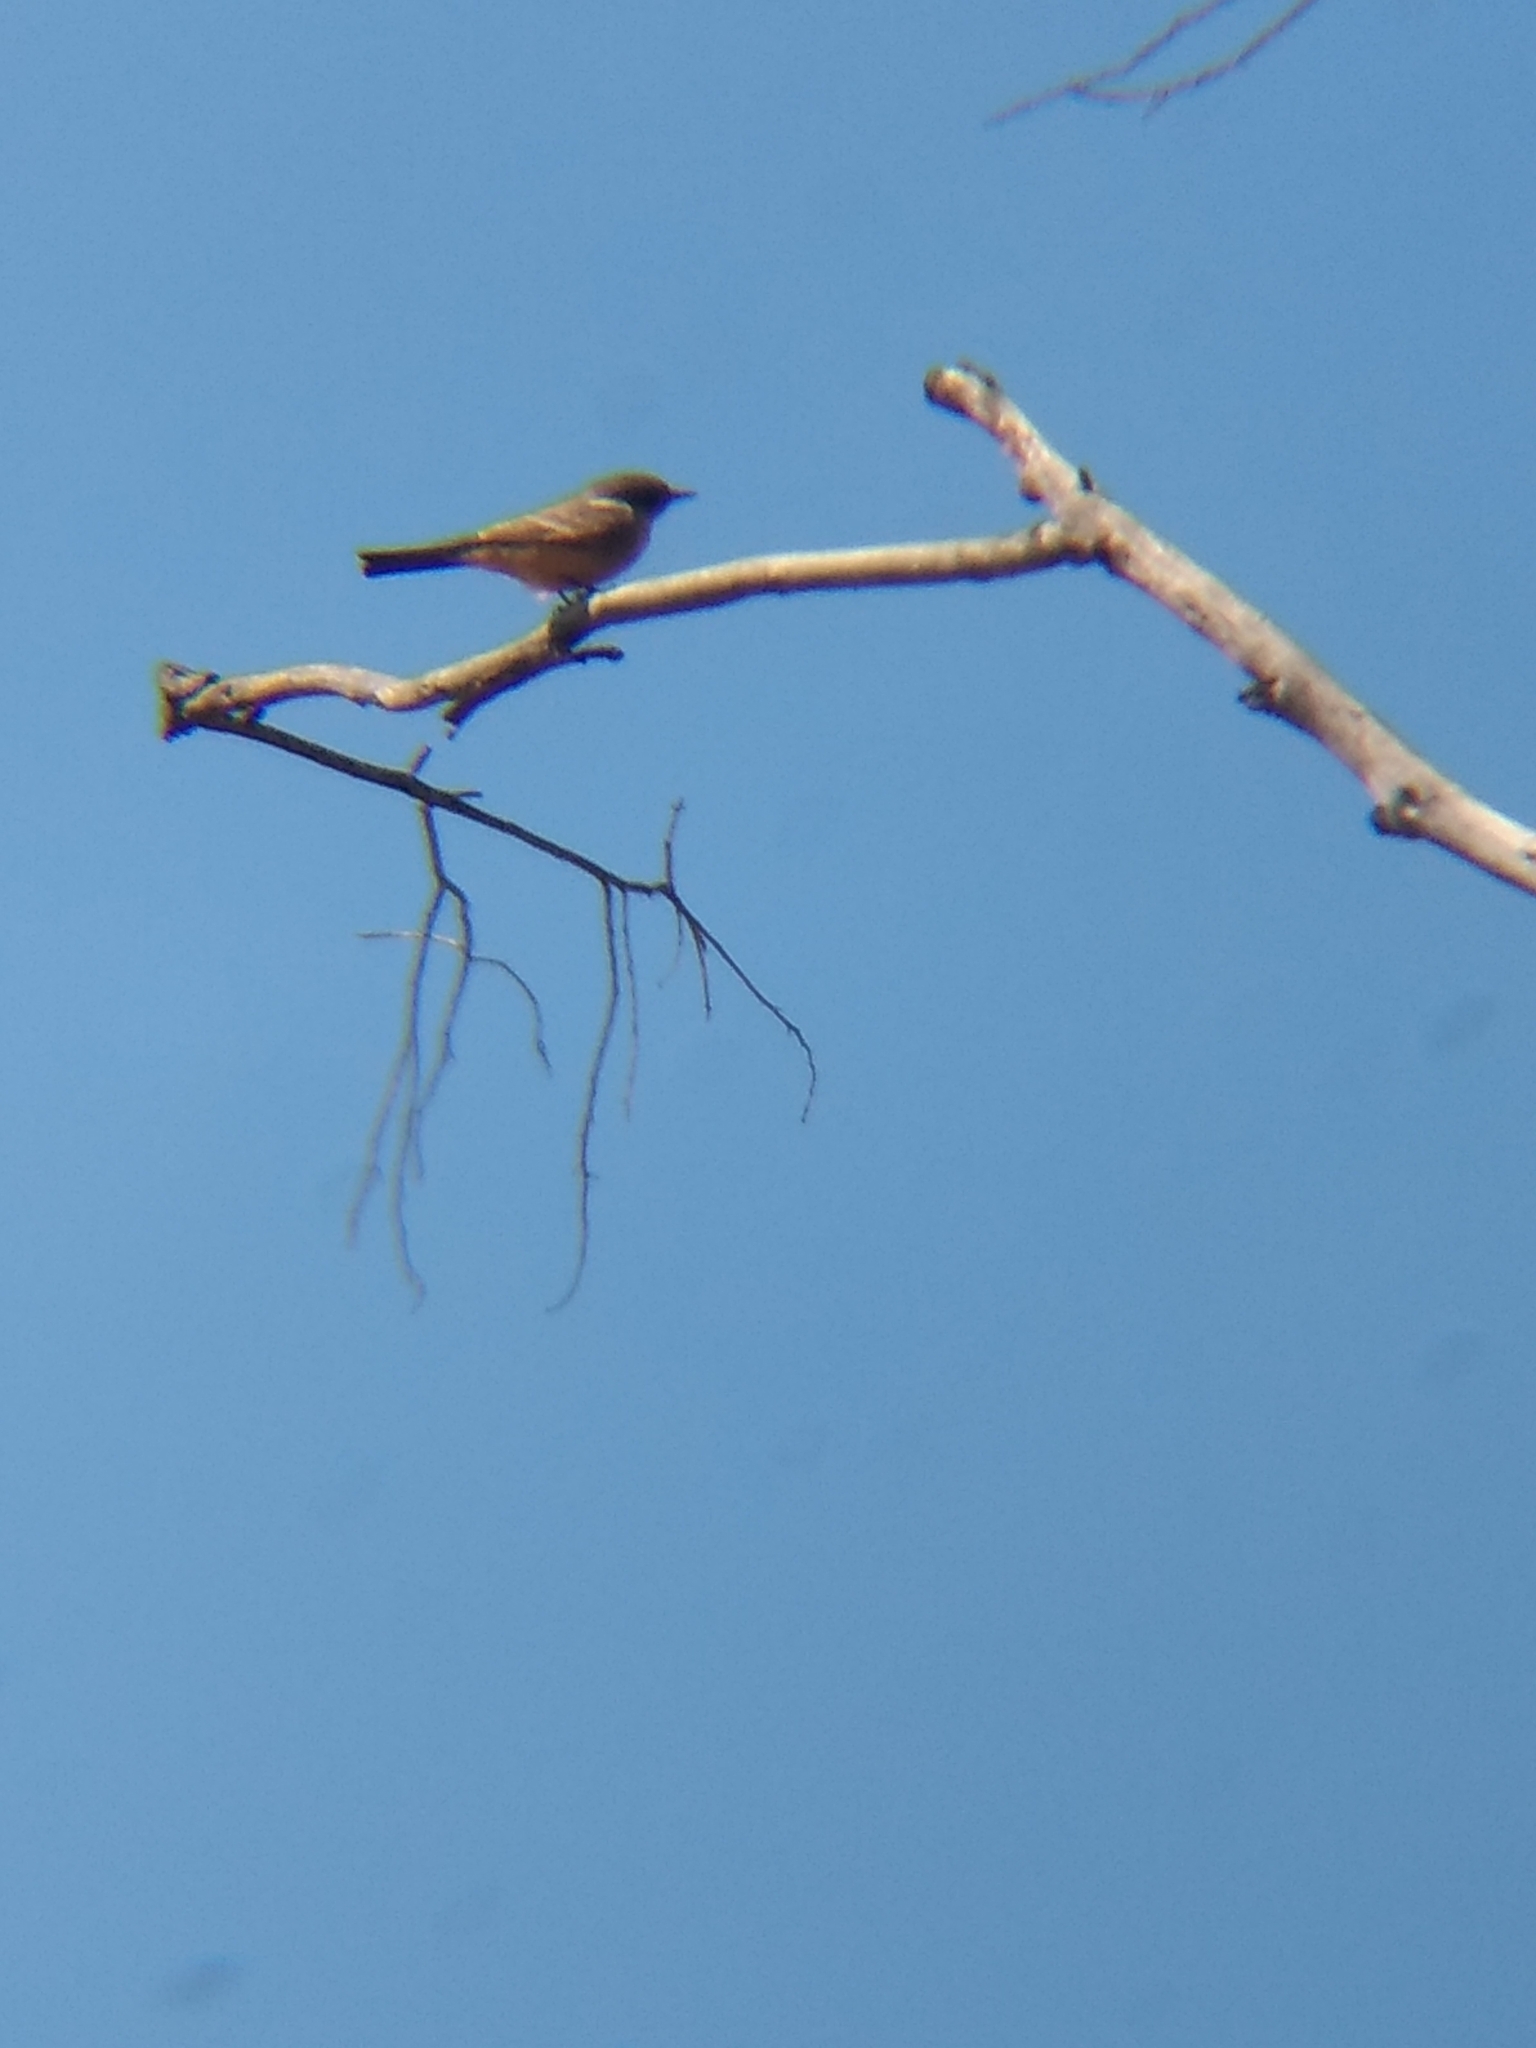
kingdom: Animalia
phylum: Chordata
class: Aves
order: Passeriformes
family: Tyrannidae
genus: Sayornis
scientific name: Sayornis saya
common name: Say's phoebe
